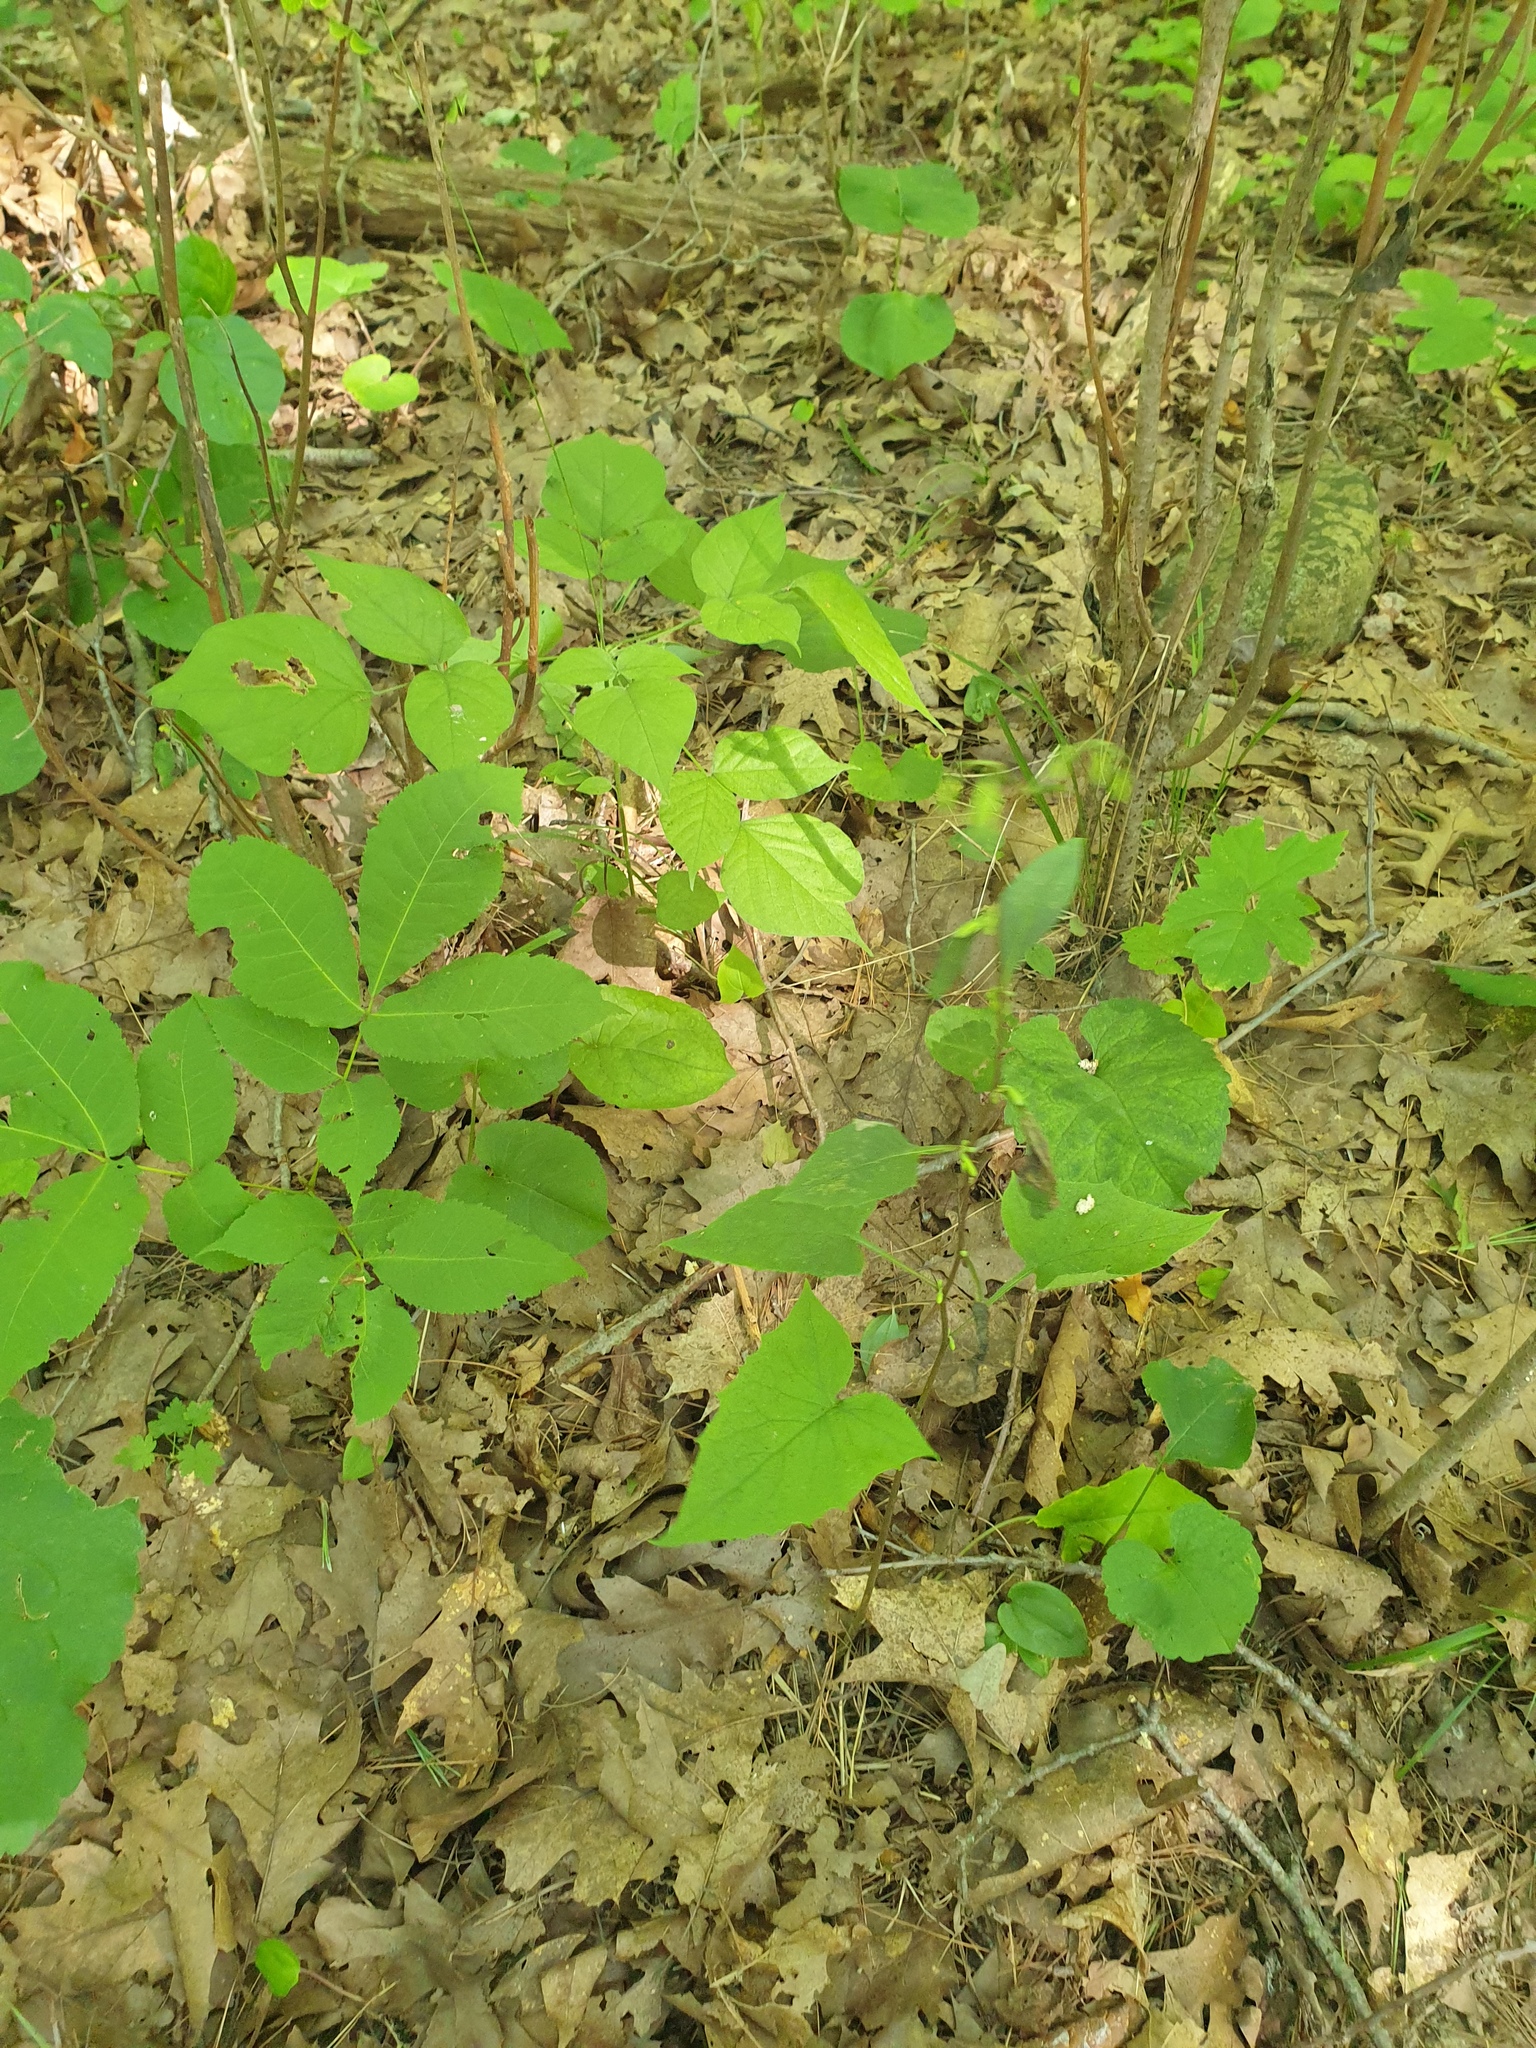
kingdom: Plantae
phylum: Tracheophyta
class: Magnoliopsida
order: Asterales
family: Asteraceae
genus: Nabalus
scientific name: Nabalus altissima
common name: Tall rattlesnakeroot
